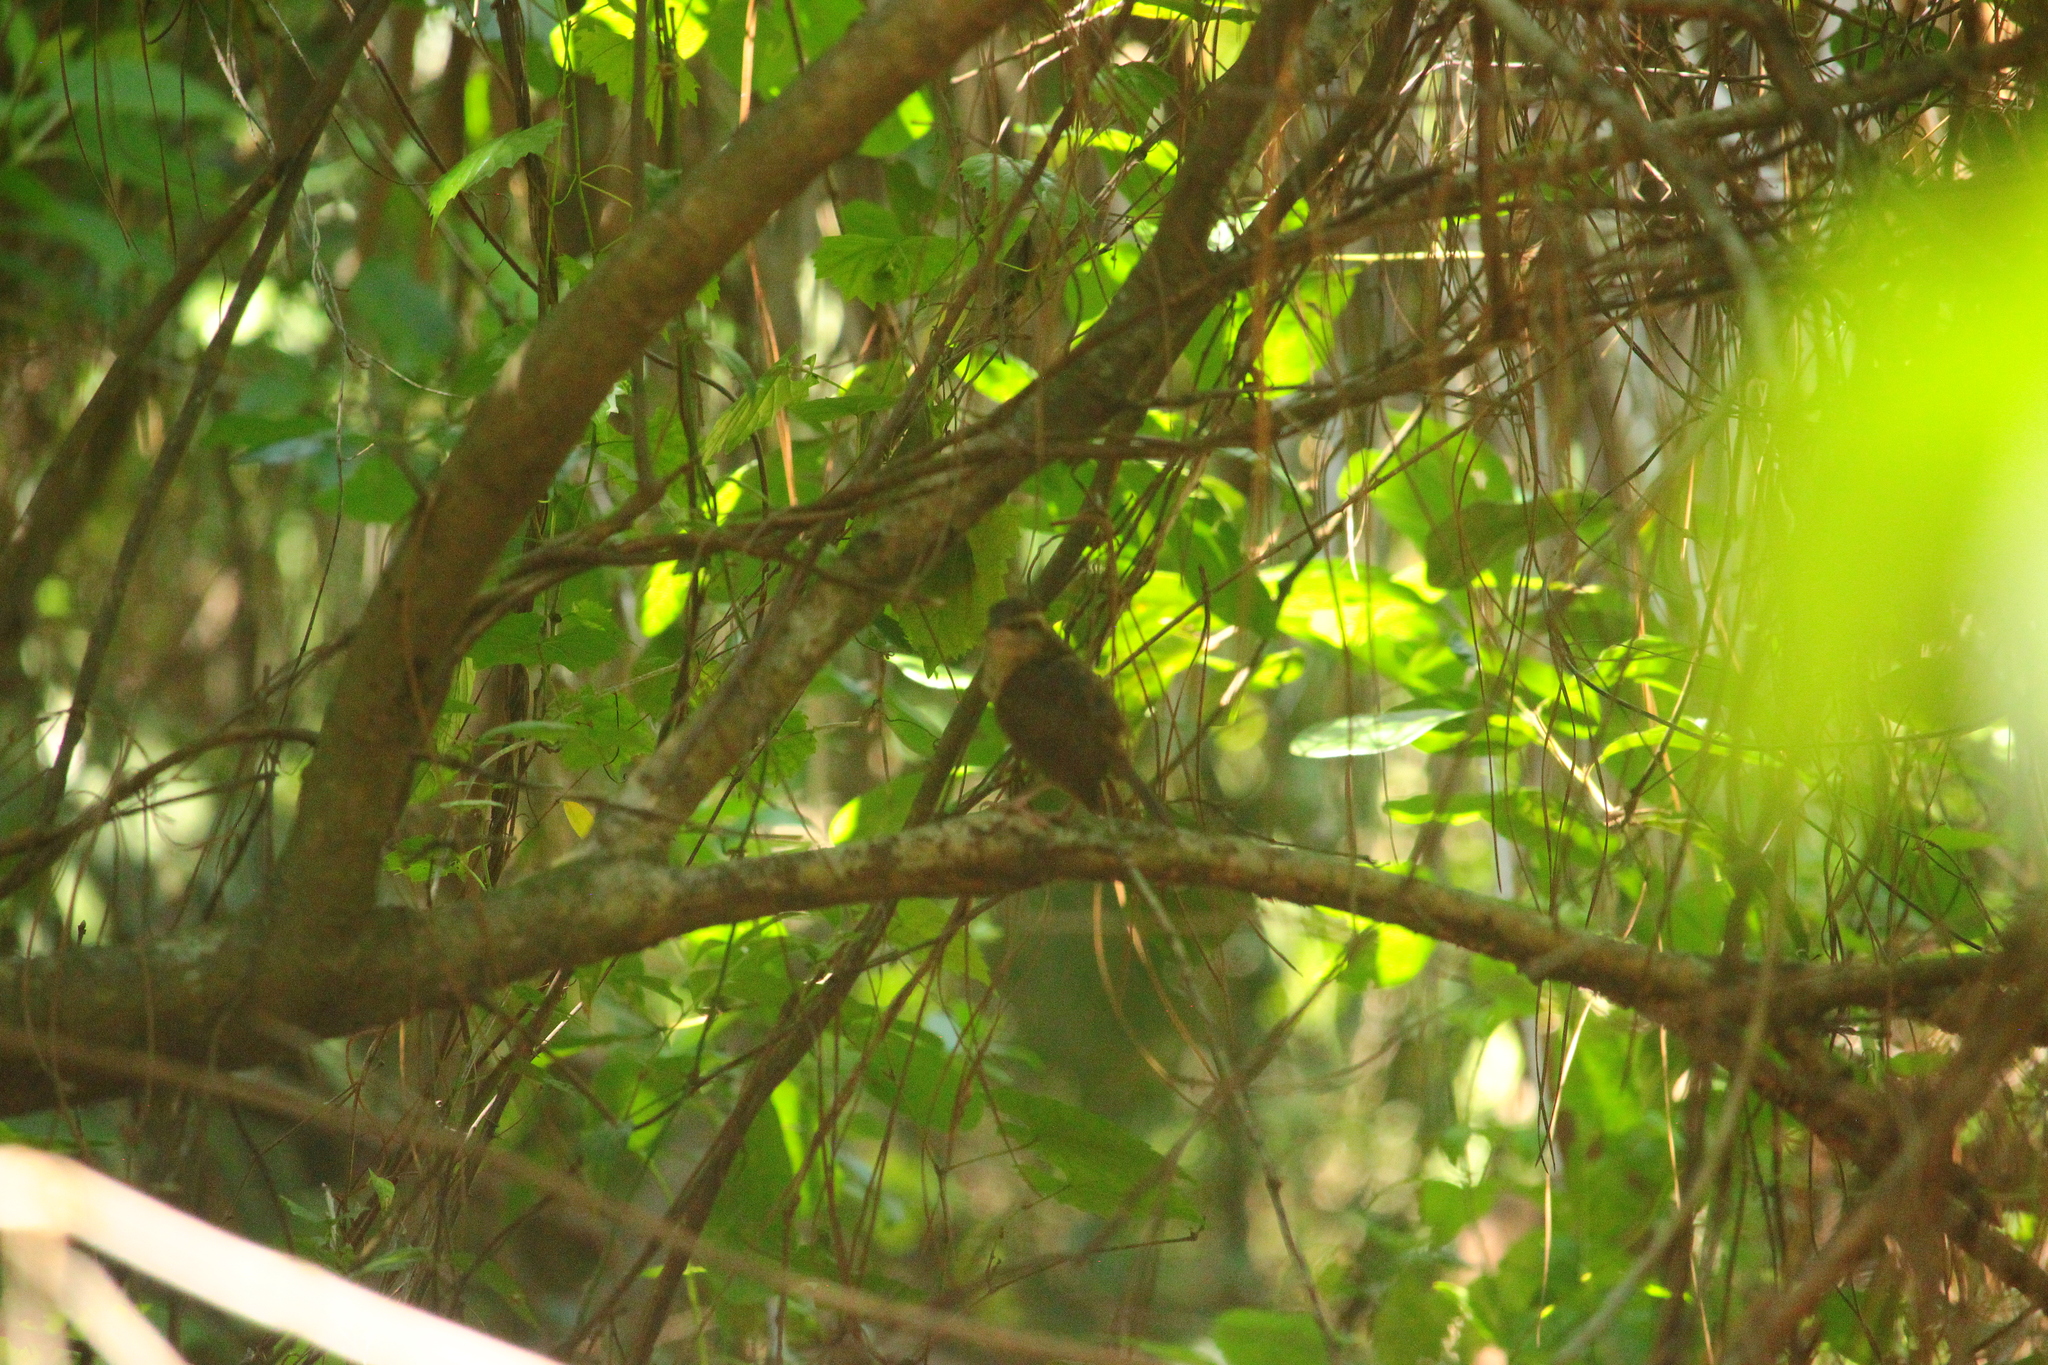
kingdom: Animalia
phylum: Chordata
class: Aves
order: Passeriformes
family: Troglodytidae
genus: Thryothorus
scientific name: Thryothorus ludovicianus
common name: Carolina wren
